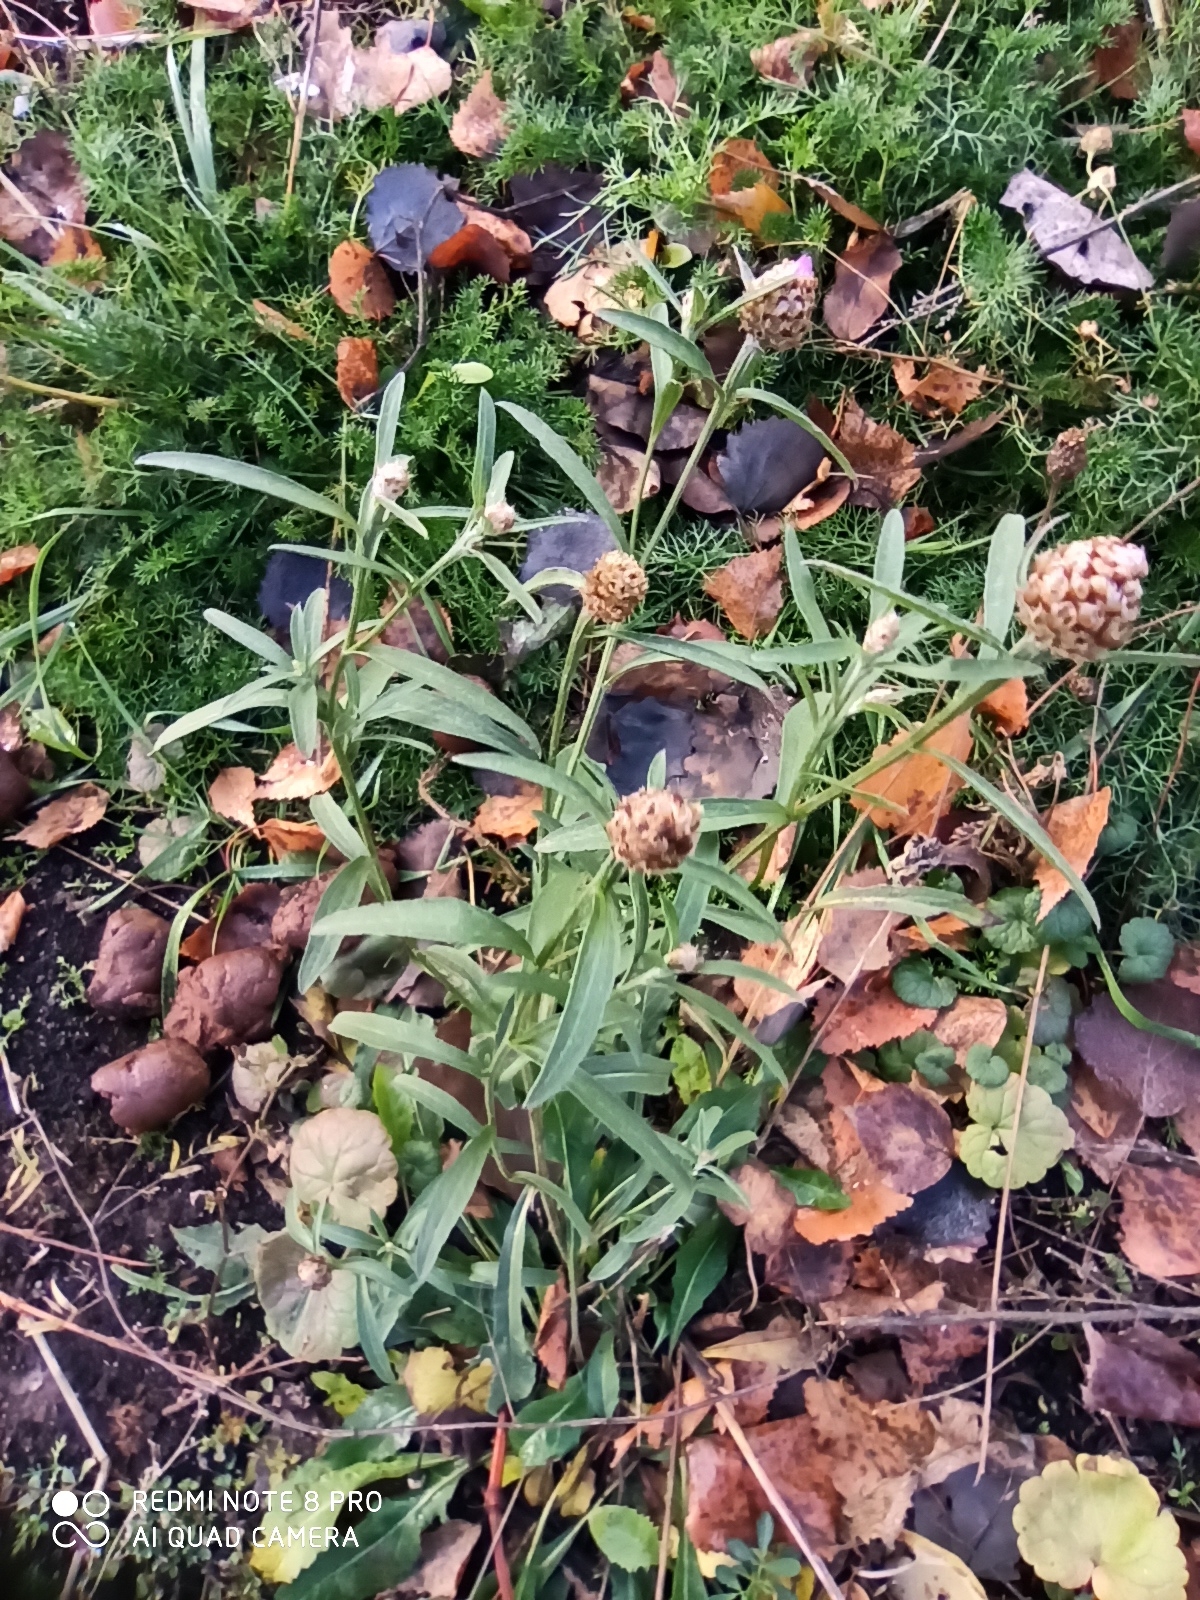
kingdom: Plantae
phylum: Tracheophyta
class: Magnoliopsida
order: Asterales
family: Asteraceae
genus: Centaurea
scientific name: Centaurea jacea
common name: Brown knapweed
